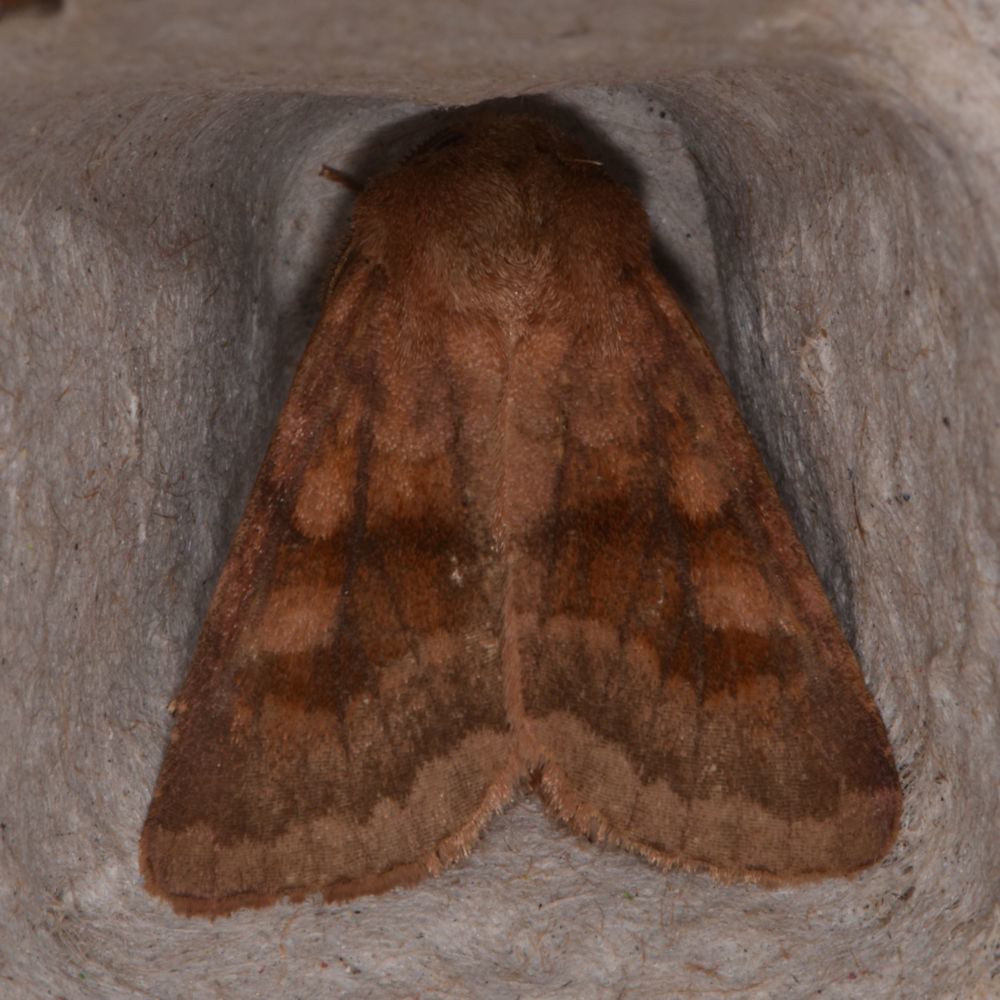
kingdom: Animalia
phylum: Arthropoda
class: Insecta
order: Lepidoptera
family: Noctuidae
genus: Nephelodes
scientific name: Nephelodes minians
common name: Bronzed cutworm
